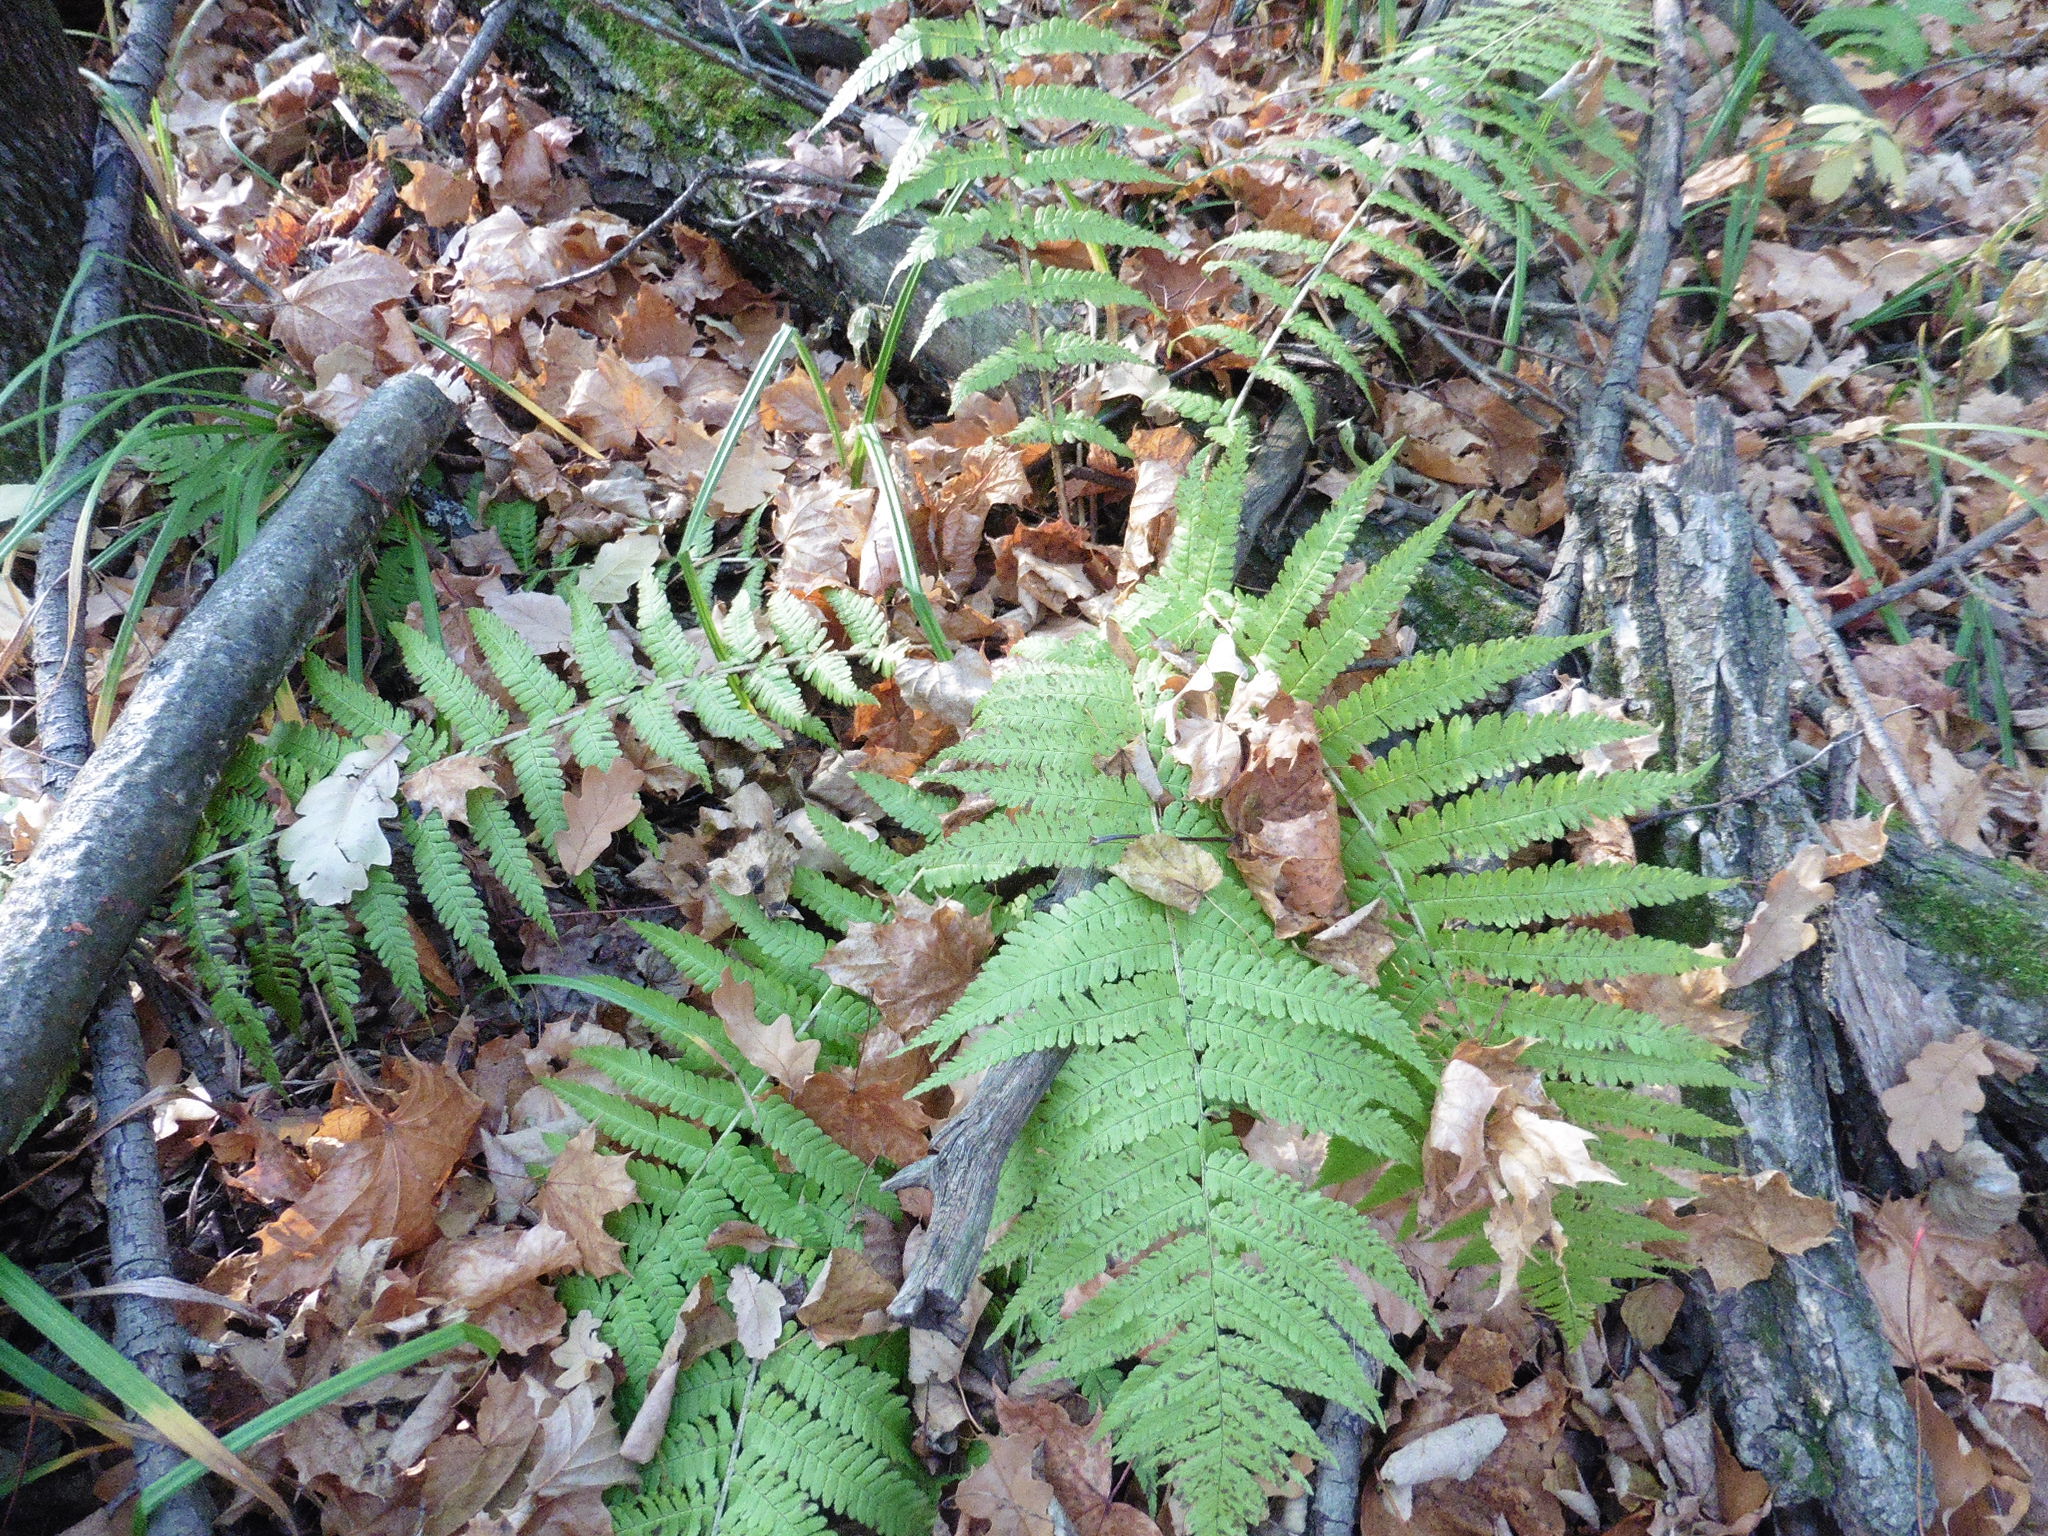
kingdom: Plantae
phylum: Tracheophyta
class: Polypodiopsida
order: Polypodiales
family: Dryopteridaceae
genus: Dryopteris
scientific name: Dryopteris filix-mas
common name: Male fern
